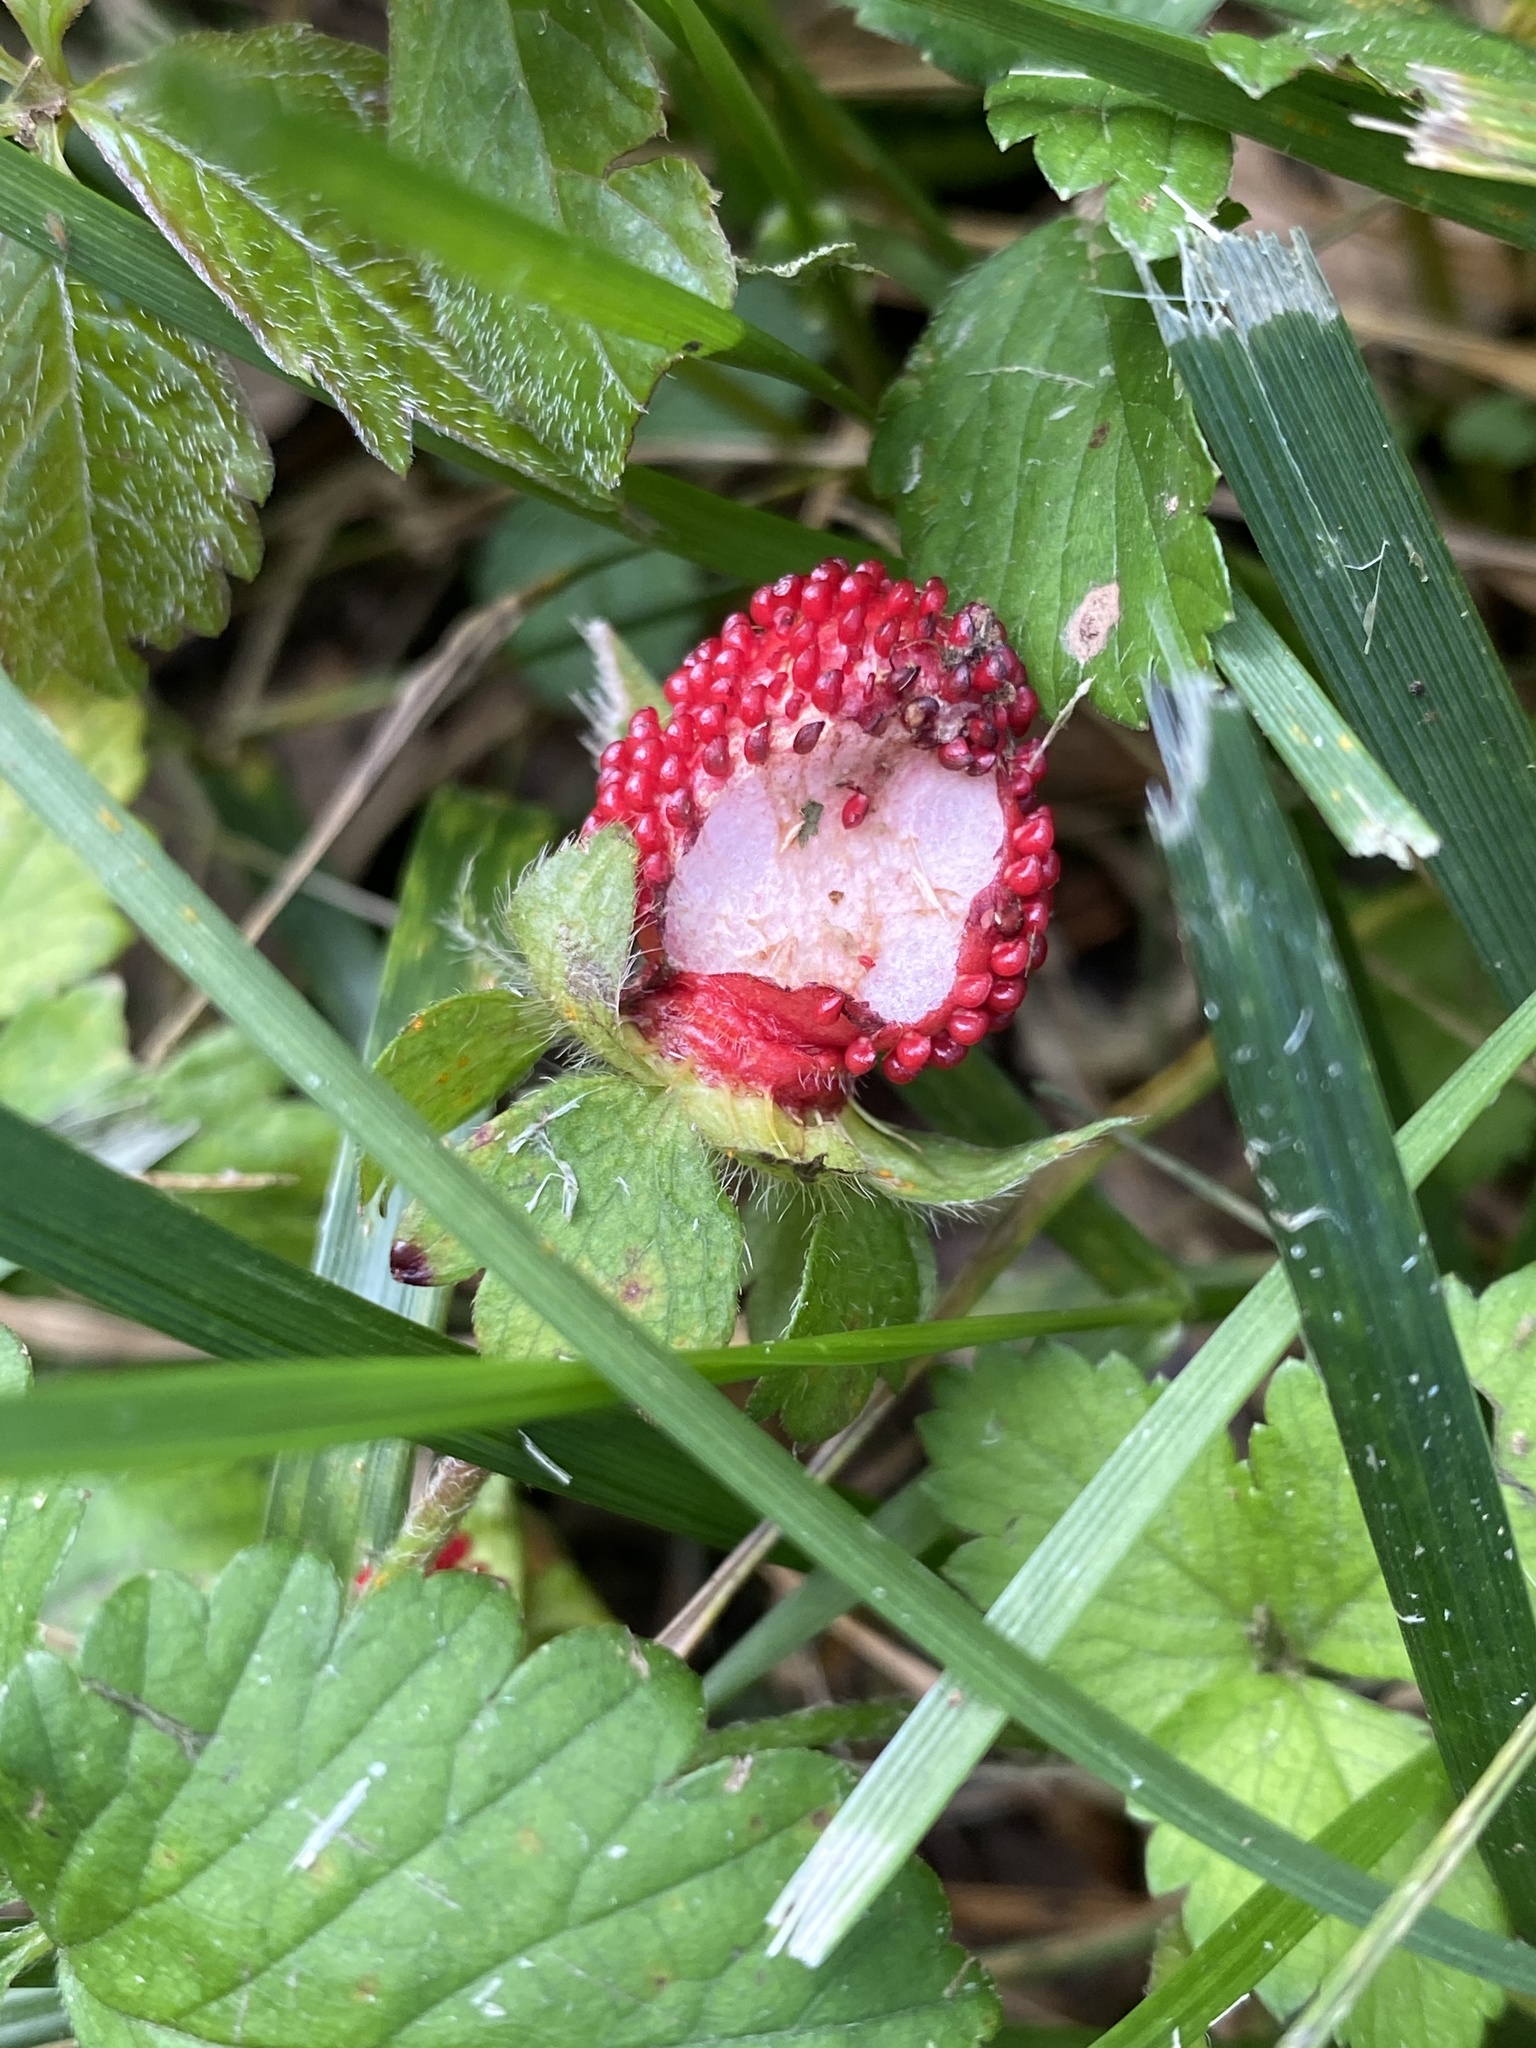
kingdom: Plantae
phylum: Tracheophyta
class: Magnoliopsida
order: Rosales
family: Rosaceae
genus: Potentilla
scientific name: Potentilla indica
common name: Yellow-flowered strawberry
